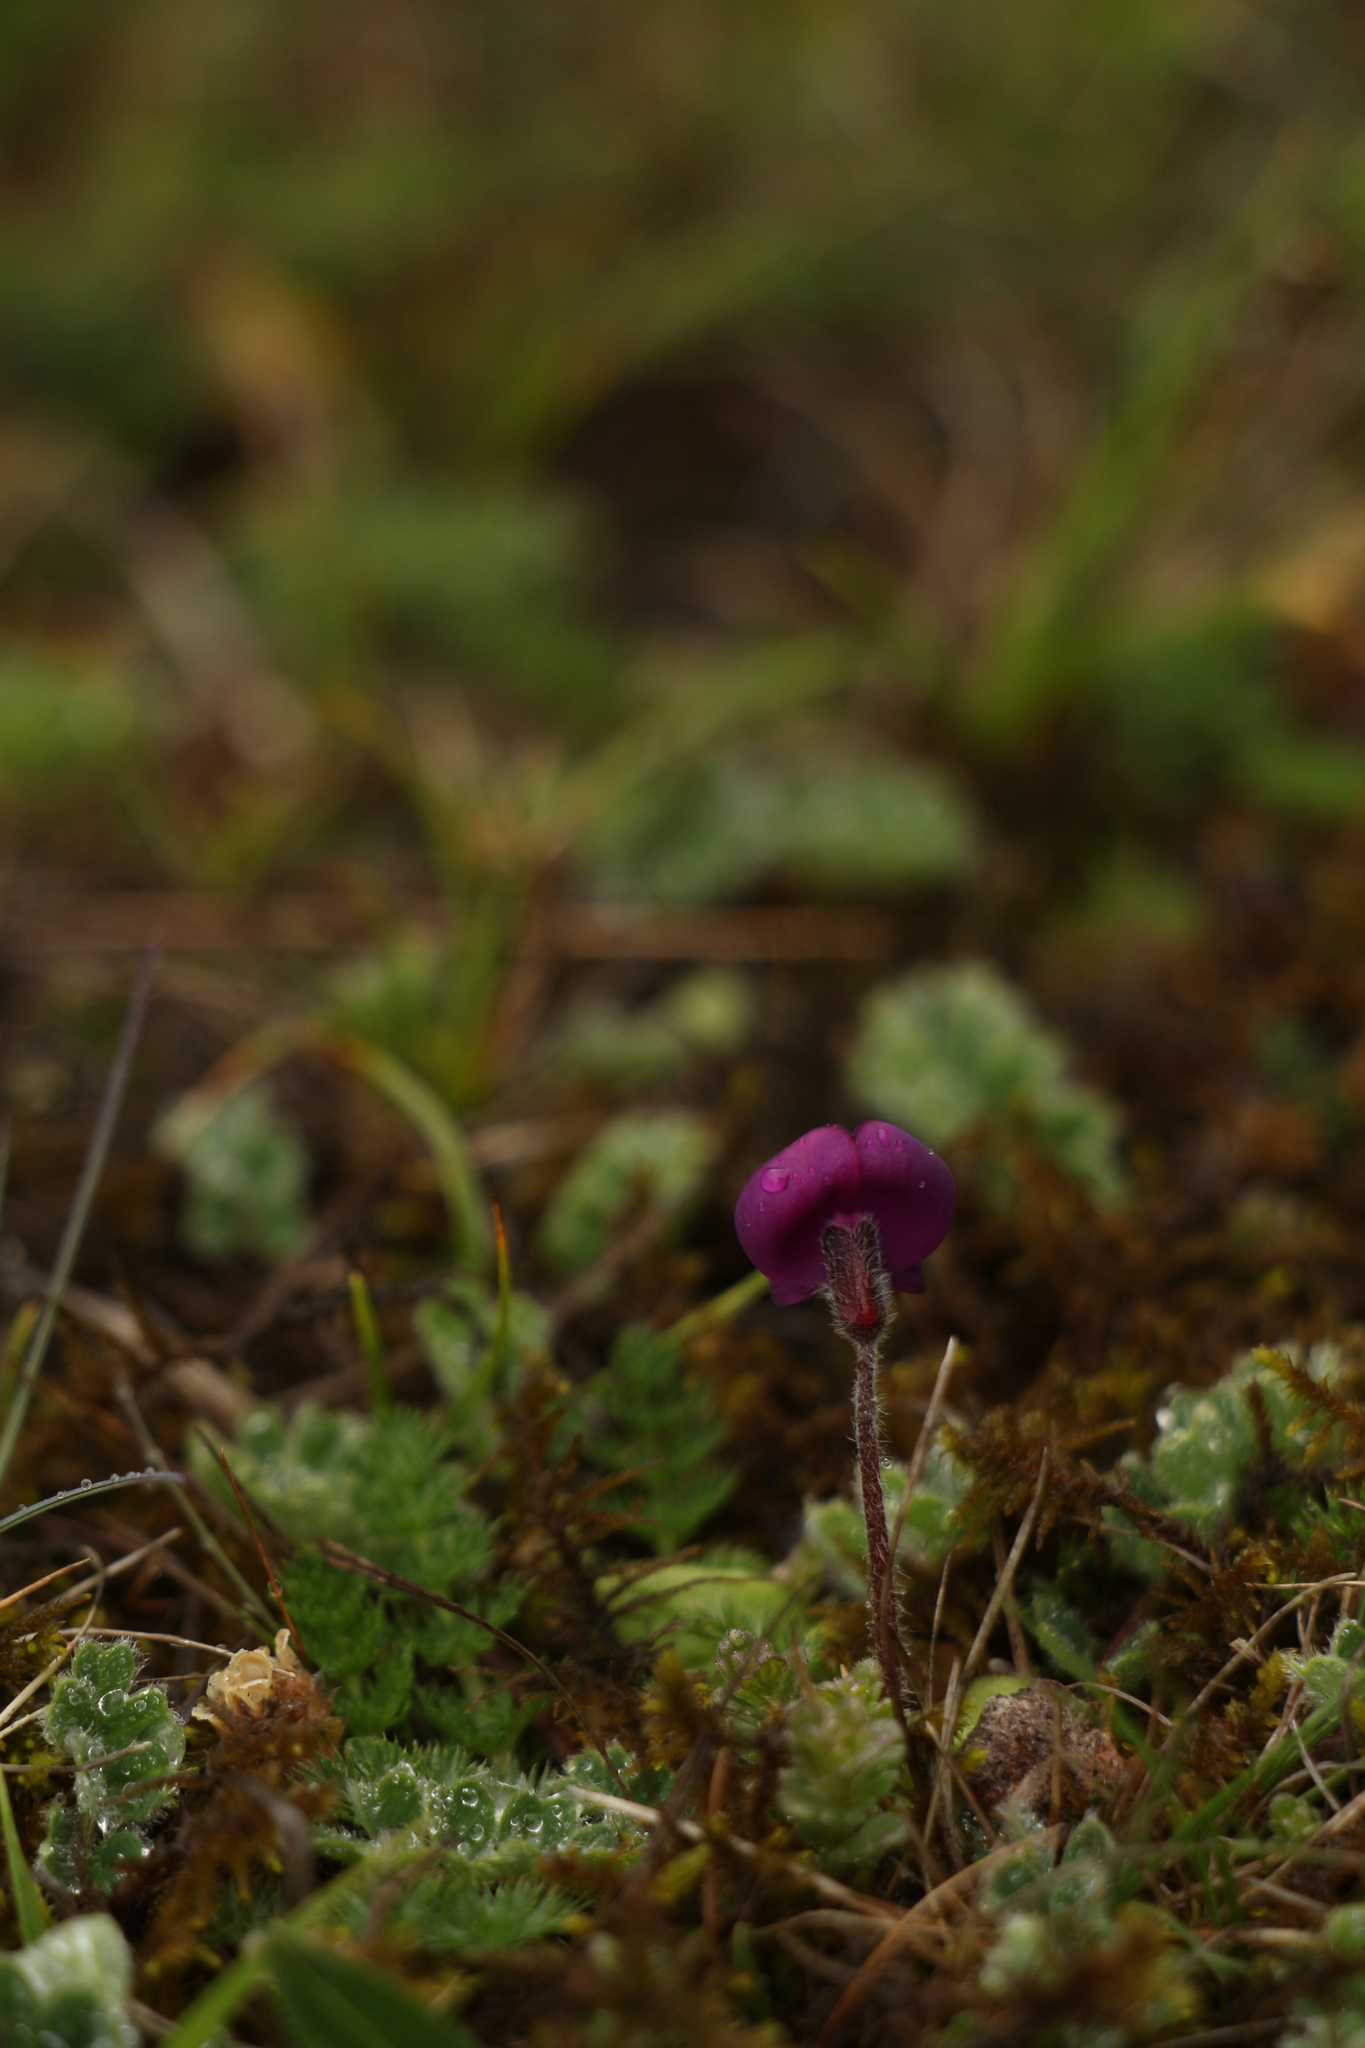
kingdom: Plantae
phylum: Tracheophyta
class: Magnoliopsida
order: Fabales
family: Fabaceae
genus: Tibetia
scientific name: Tibetia himalaica
